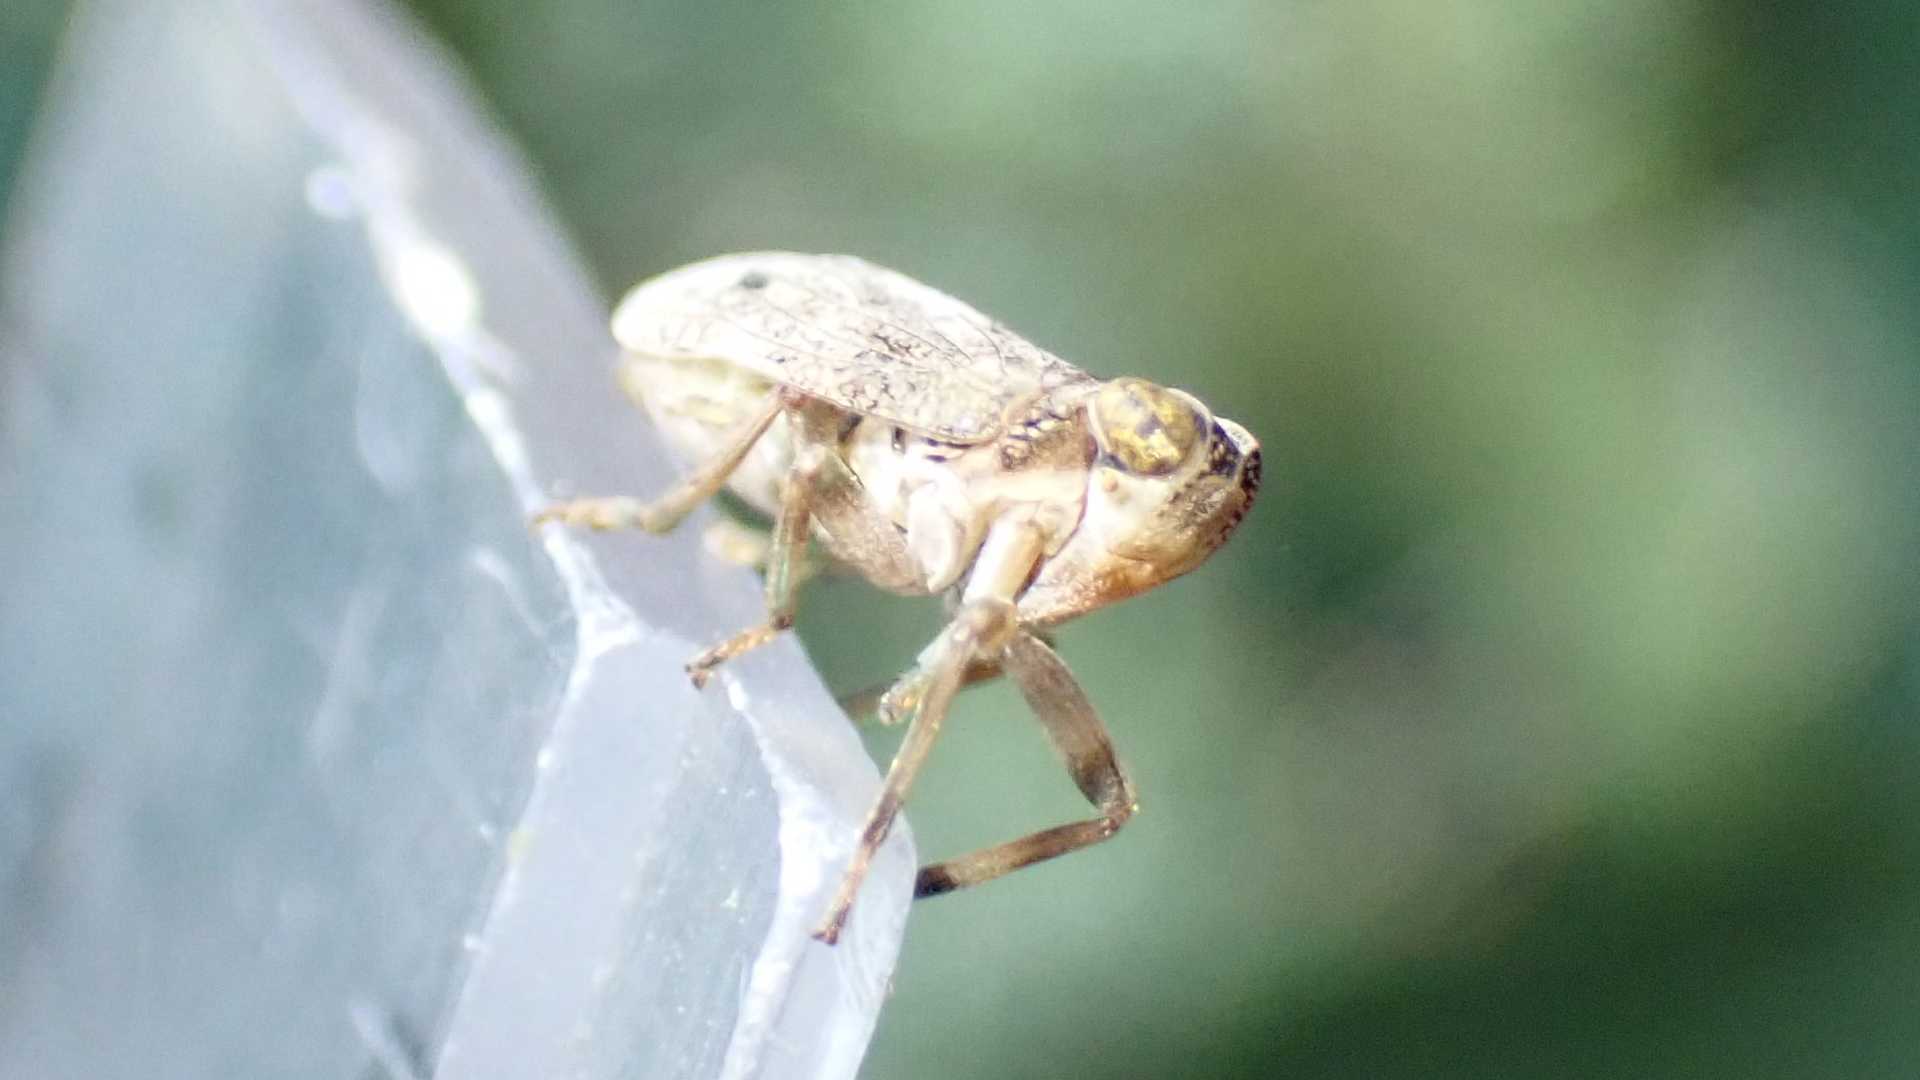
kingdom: Animalia
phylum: Arthropoda
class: Insecta
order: Hemiptera
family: Issidae
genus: Issus
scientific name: Issus coleoptratus
